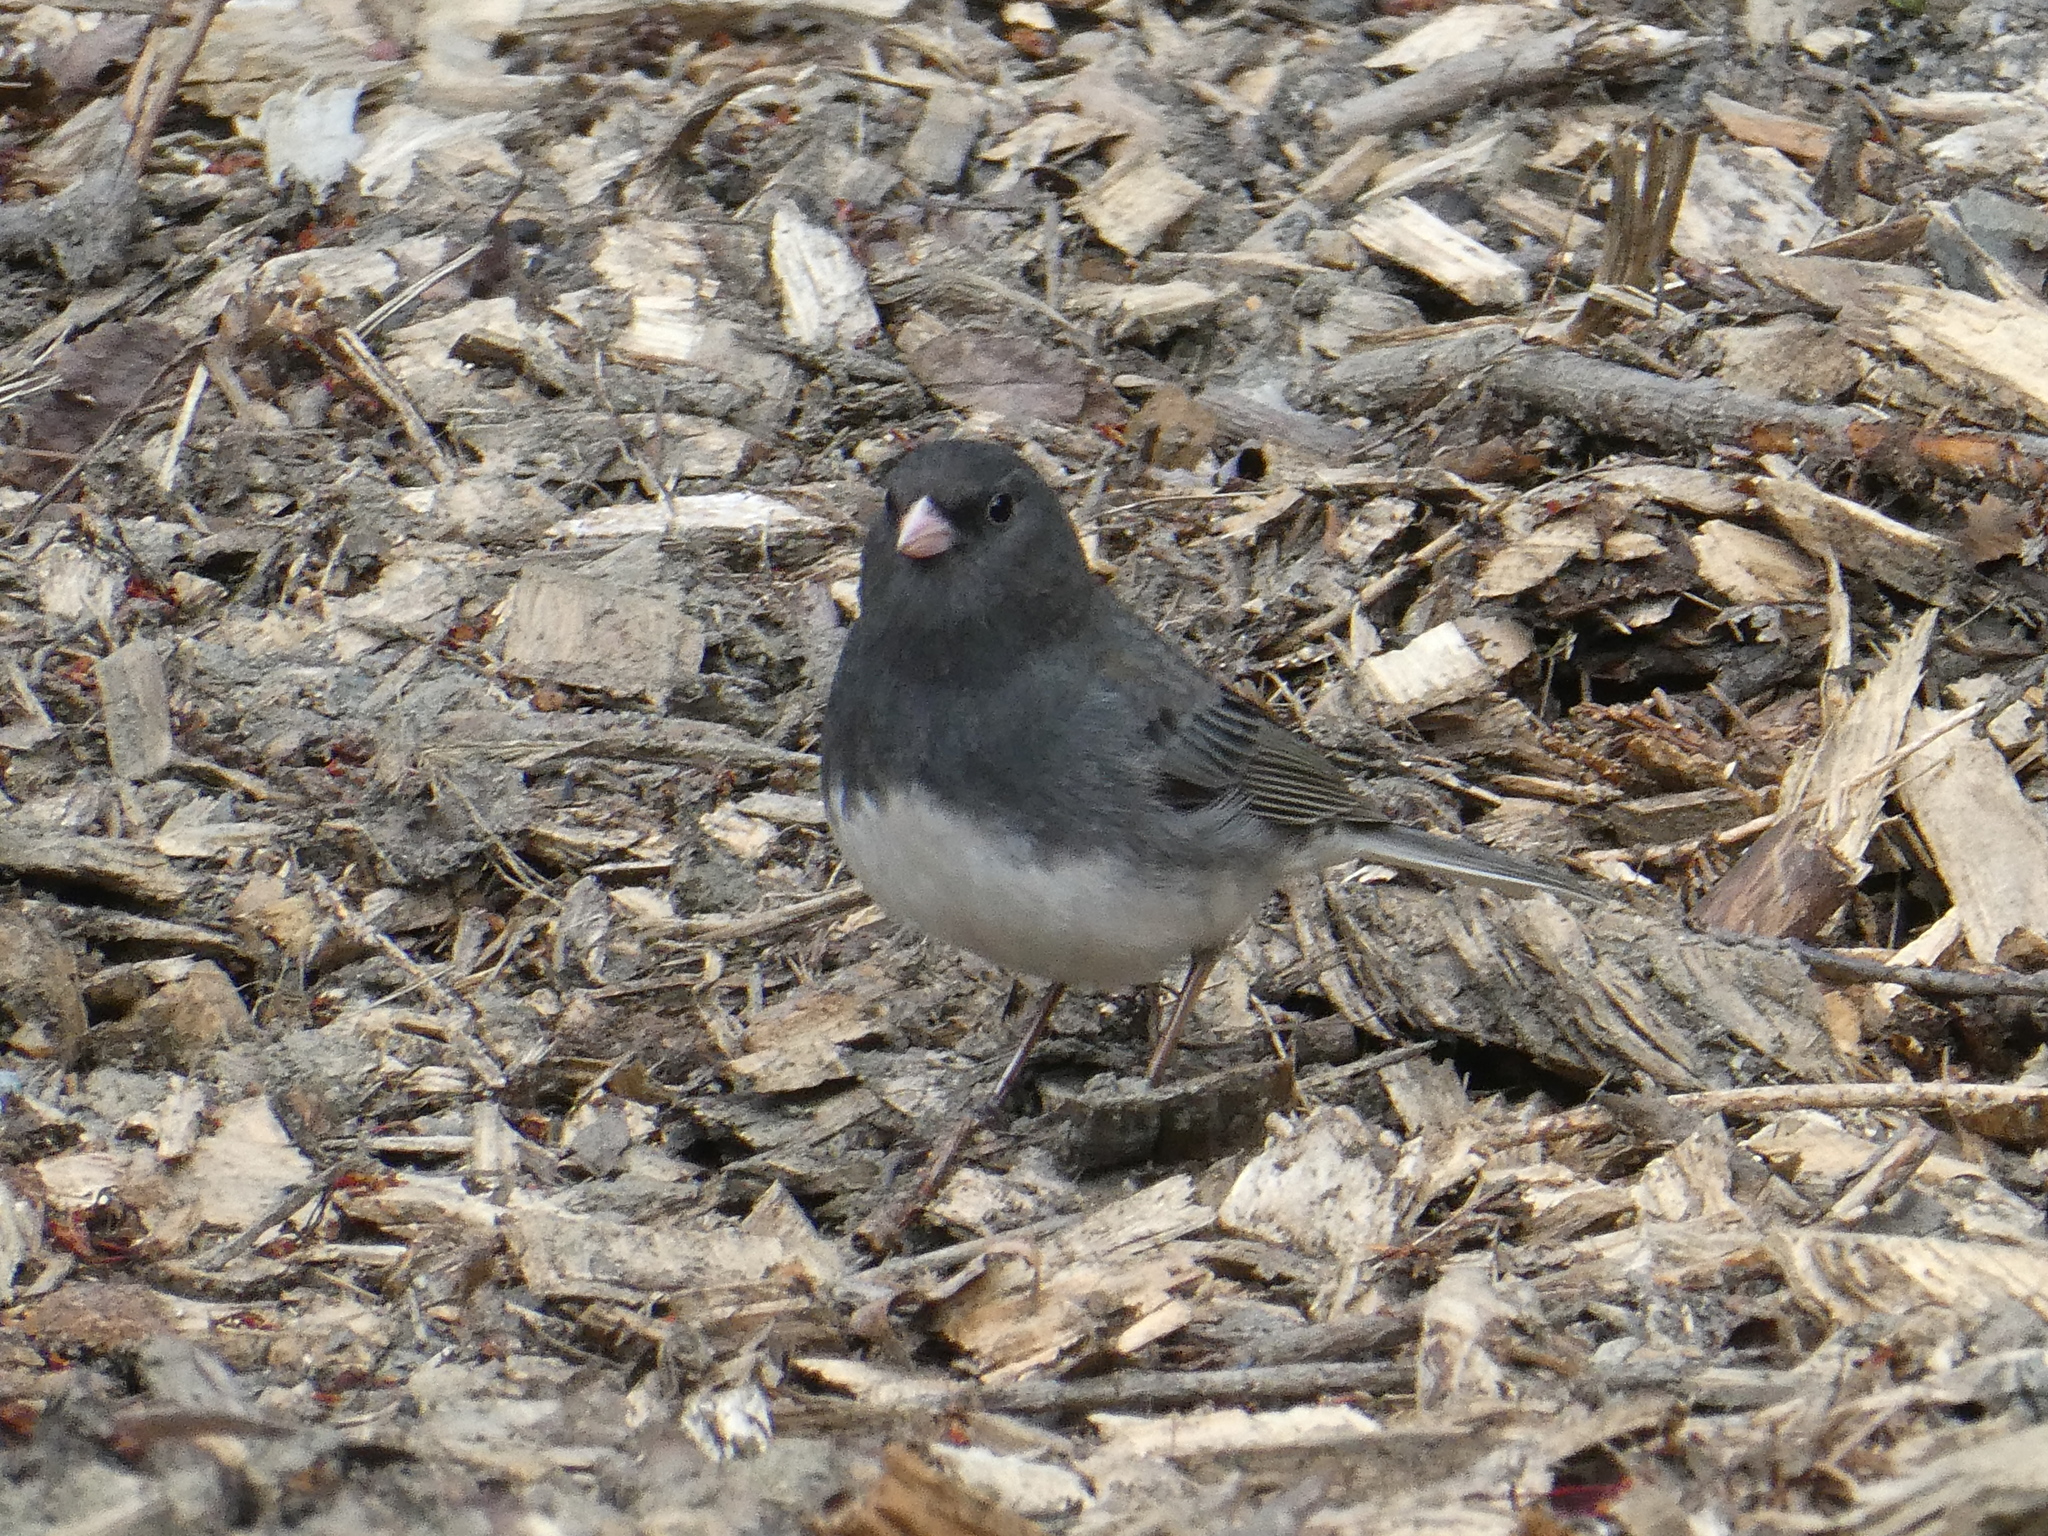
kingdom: Animalia
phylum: Chordata
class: Aves
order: Passeriformes
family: Passerellidae
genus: Junco
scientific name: Junco hyemalis
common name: Dark-eyed junco
